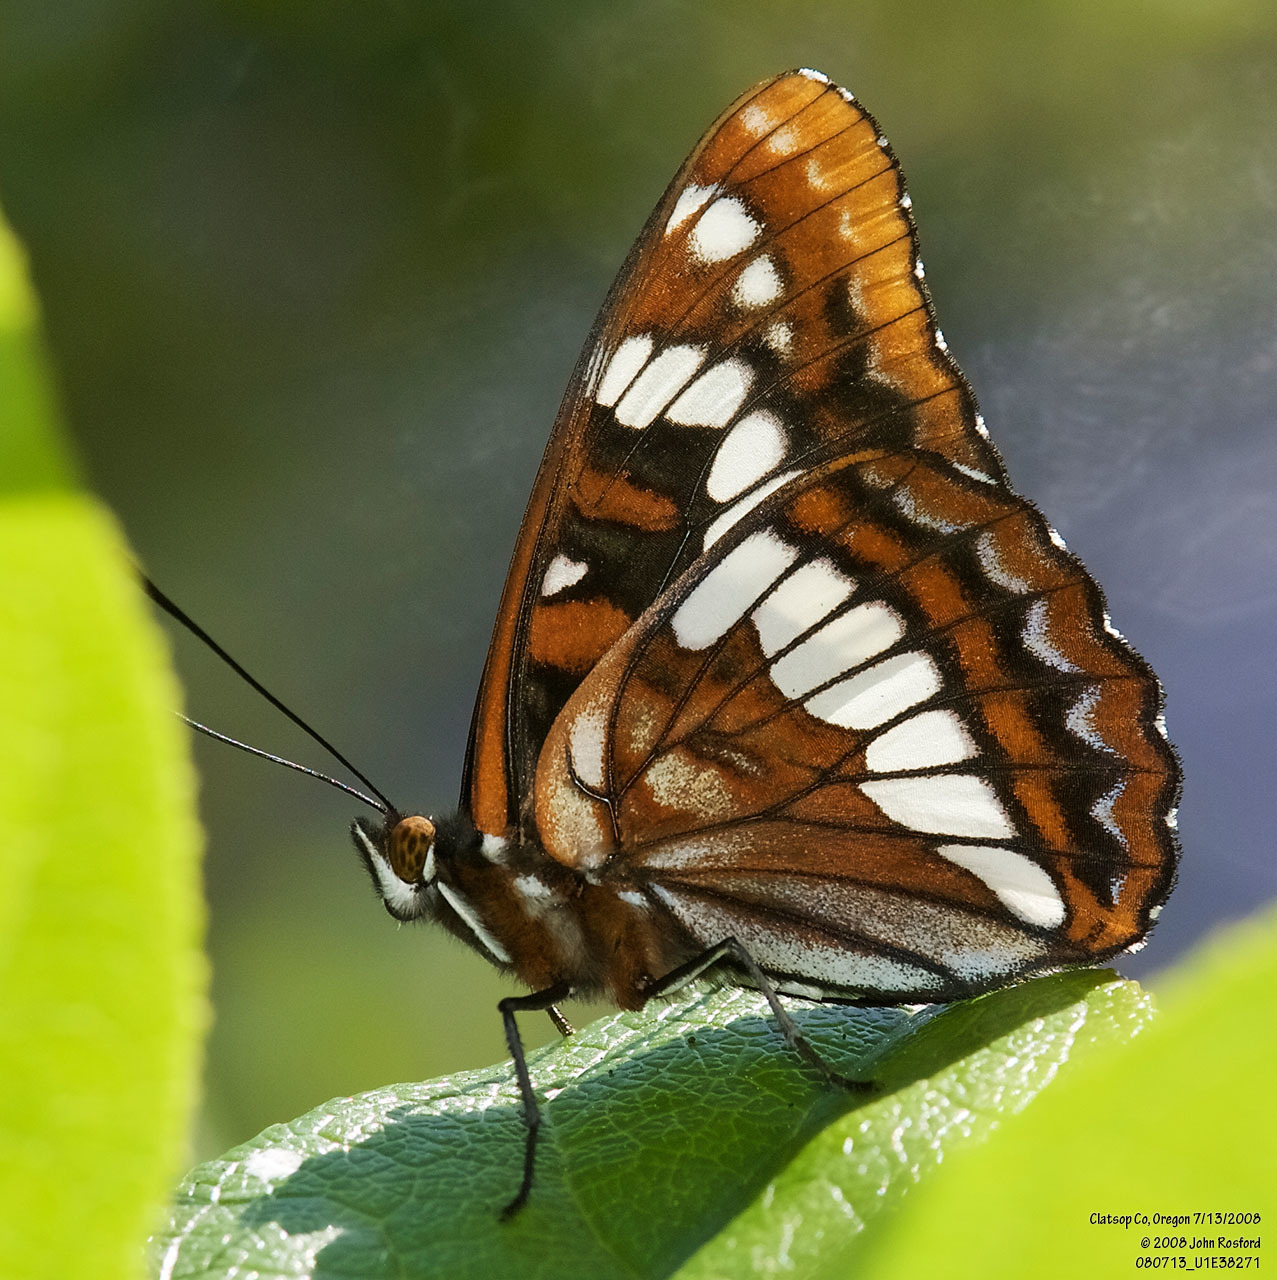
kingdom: Animalia
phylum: Arthropoda
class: Insecta
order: Lepidoptera
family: Nymphalidae
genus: Limenitis
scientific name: Limenitis lorquini
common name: Lorquin's admiral
